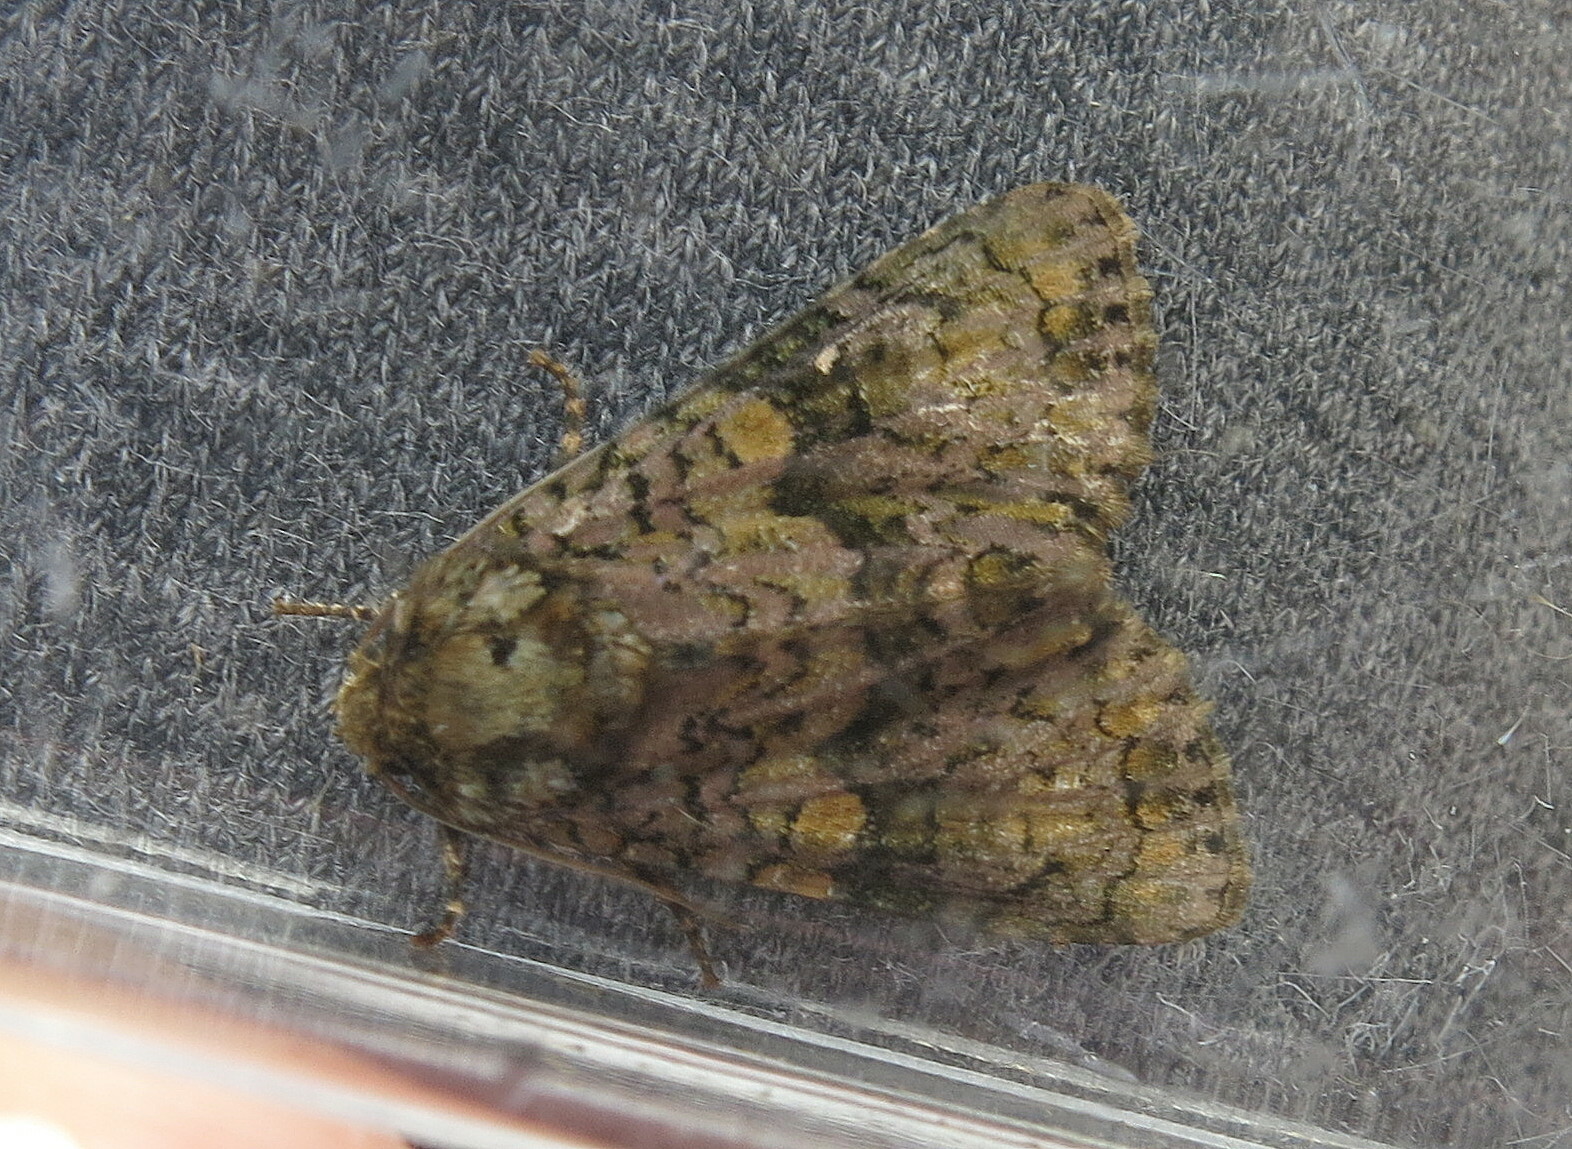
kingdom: Animalia
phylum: Arthropoda
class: Insecta
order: Lepidoptera
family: Noctuidae
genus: Craniophora
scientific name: Craniophora ligustri
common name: Coronet
